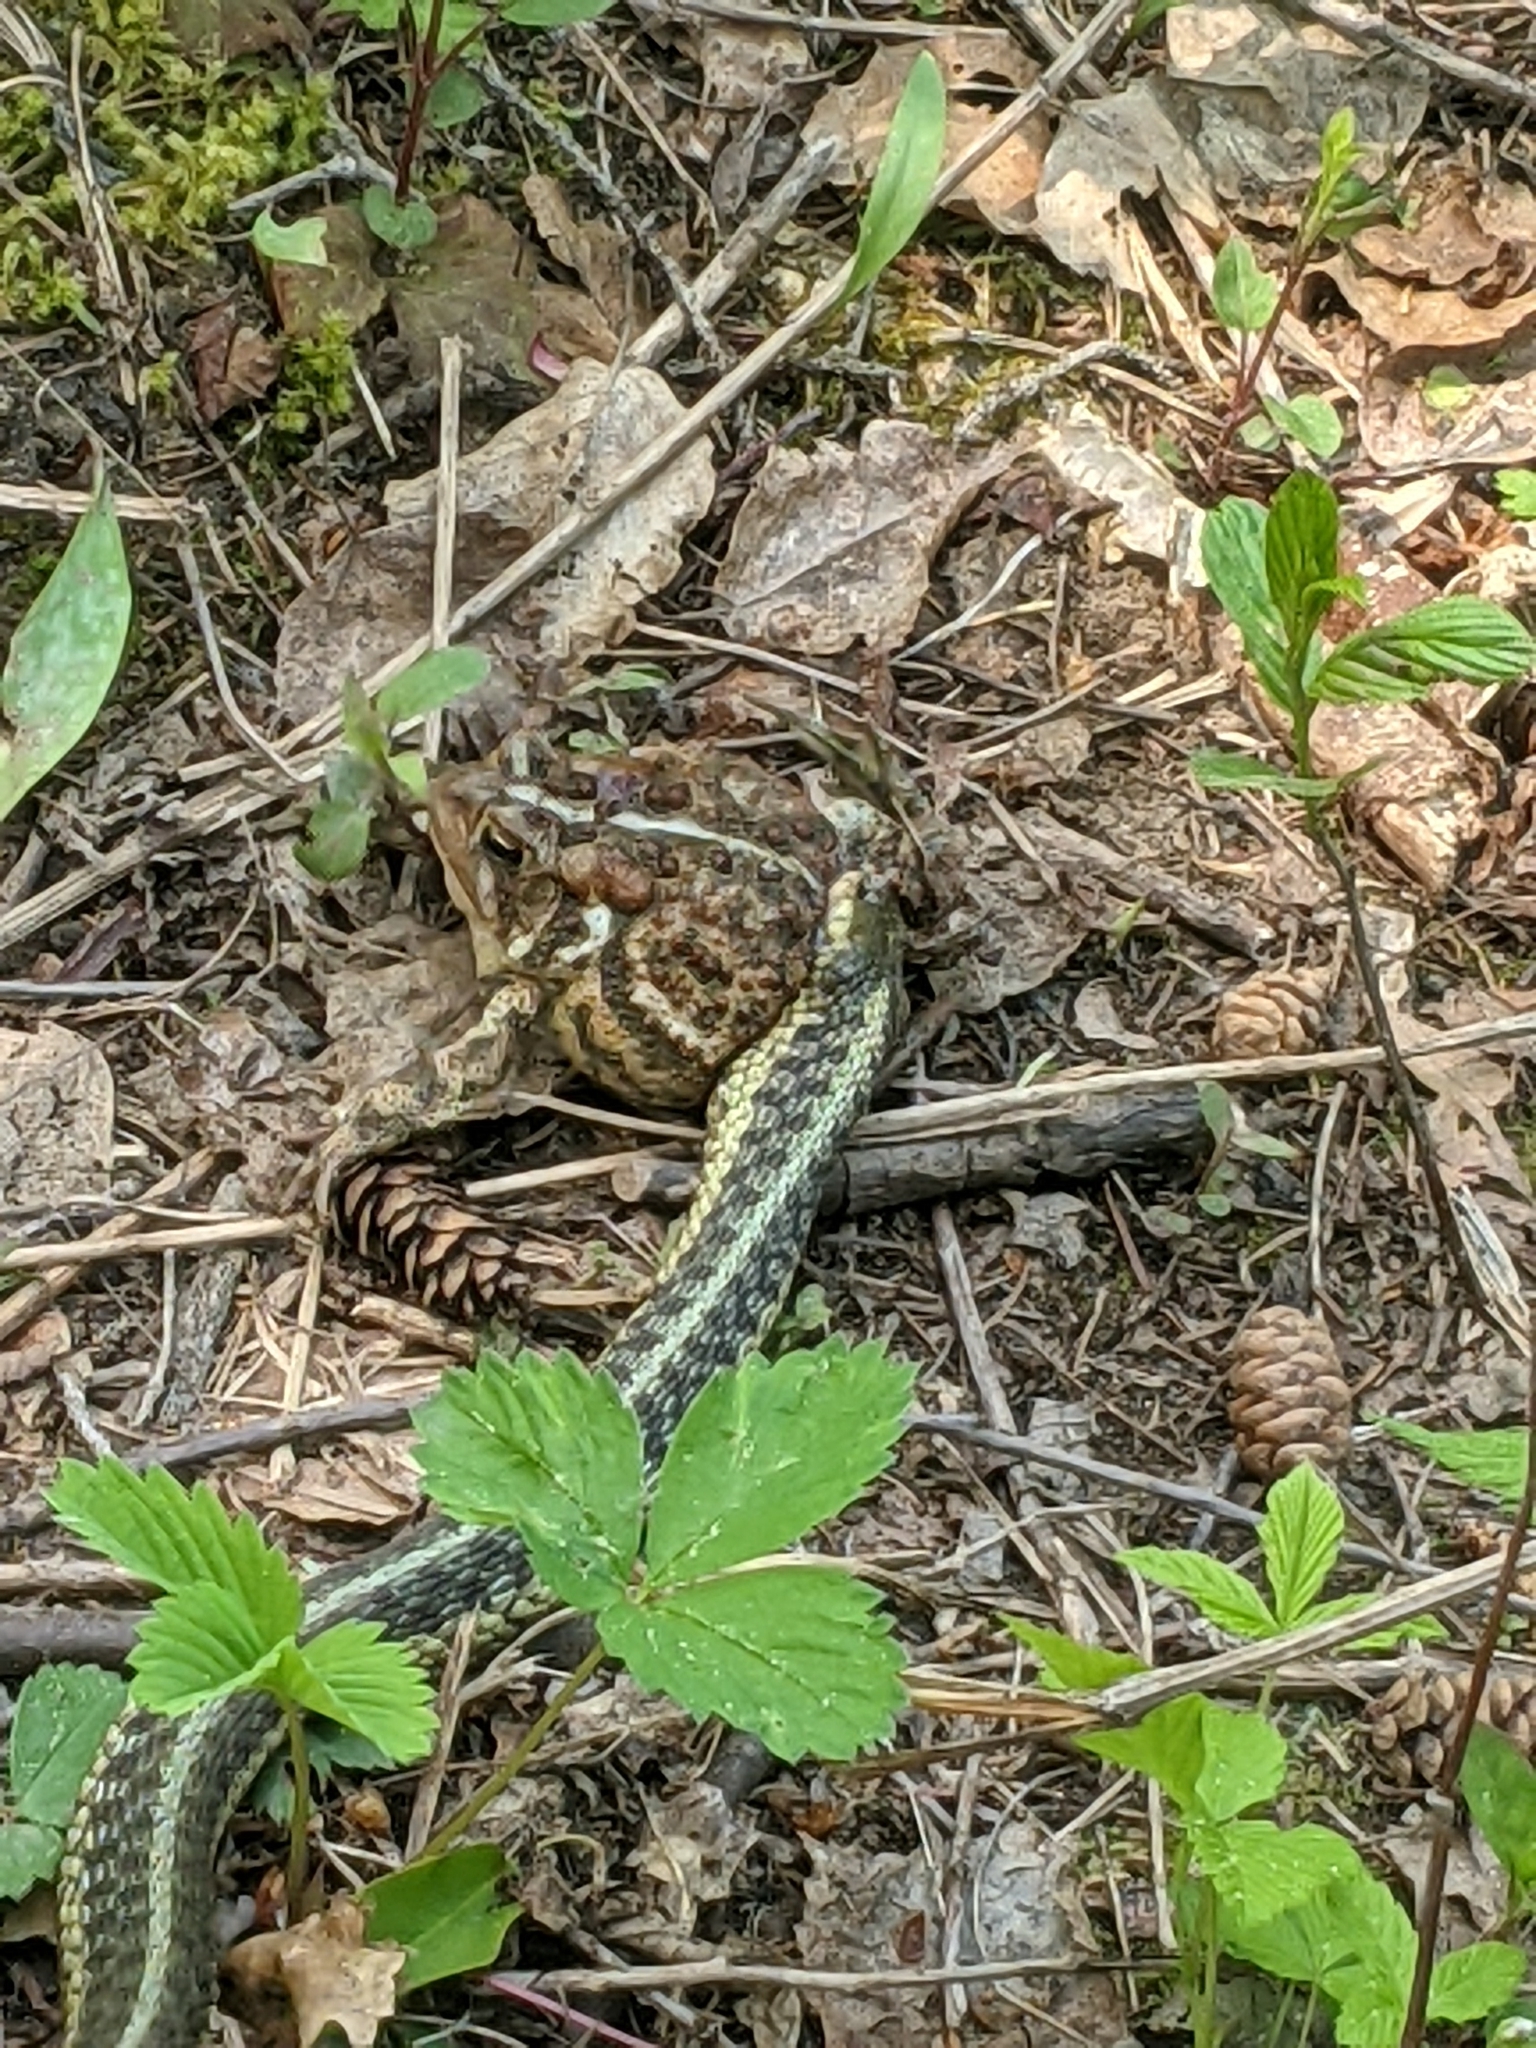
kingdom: Animalia
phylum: Chordata
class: Squamata
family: Colubridae
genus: Thamnophis
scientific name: Thamnophis sirtalis
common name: Common garter snake
